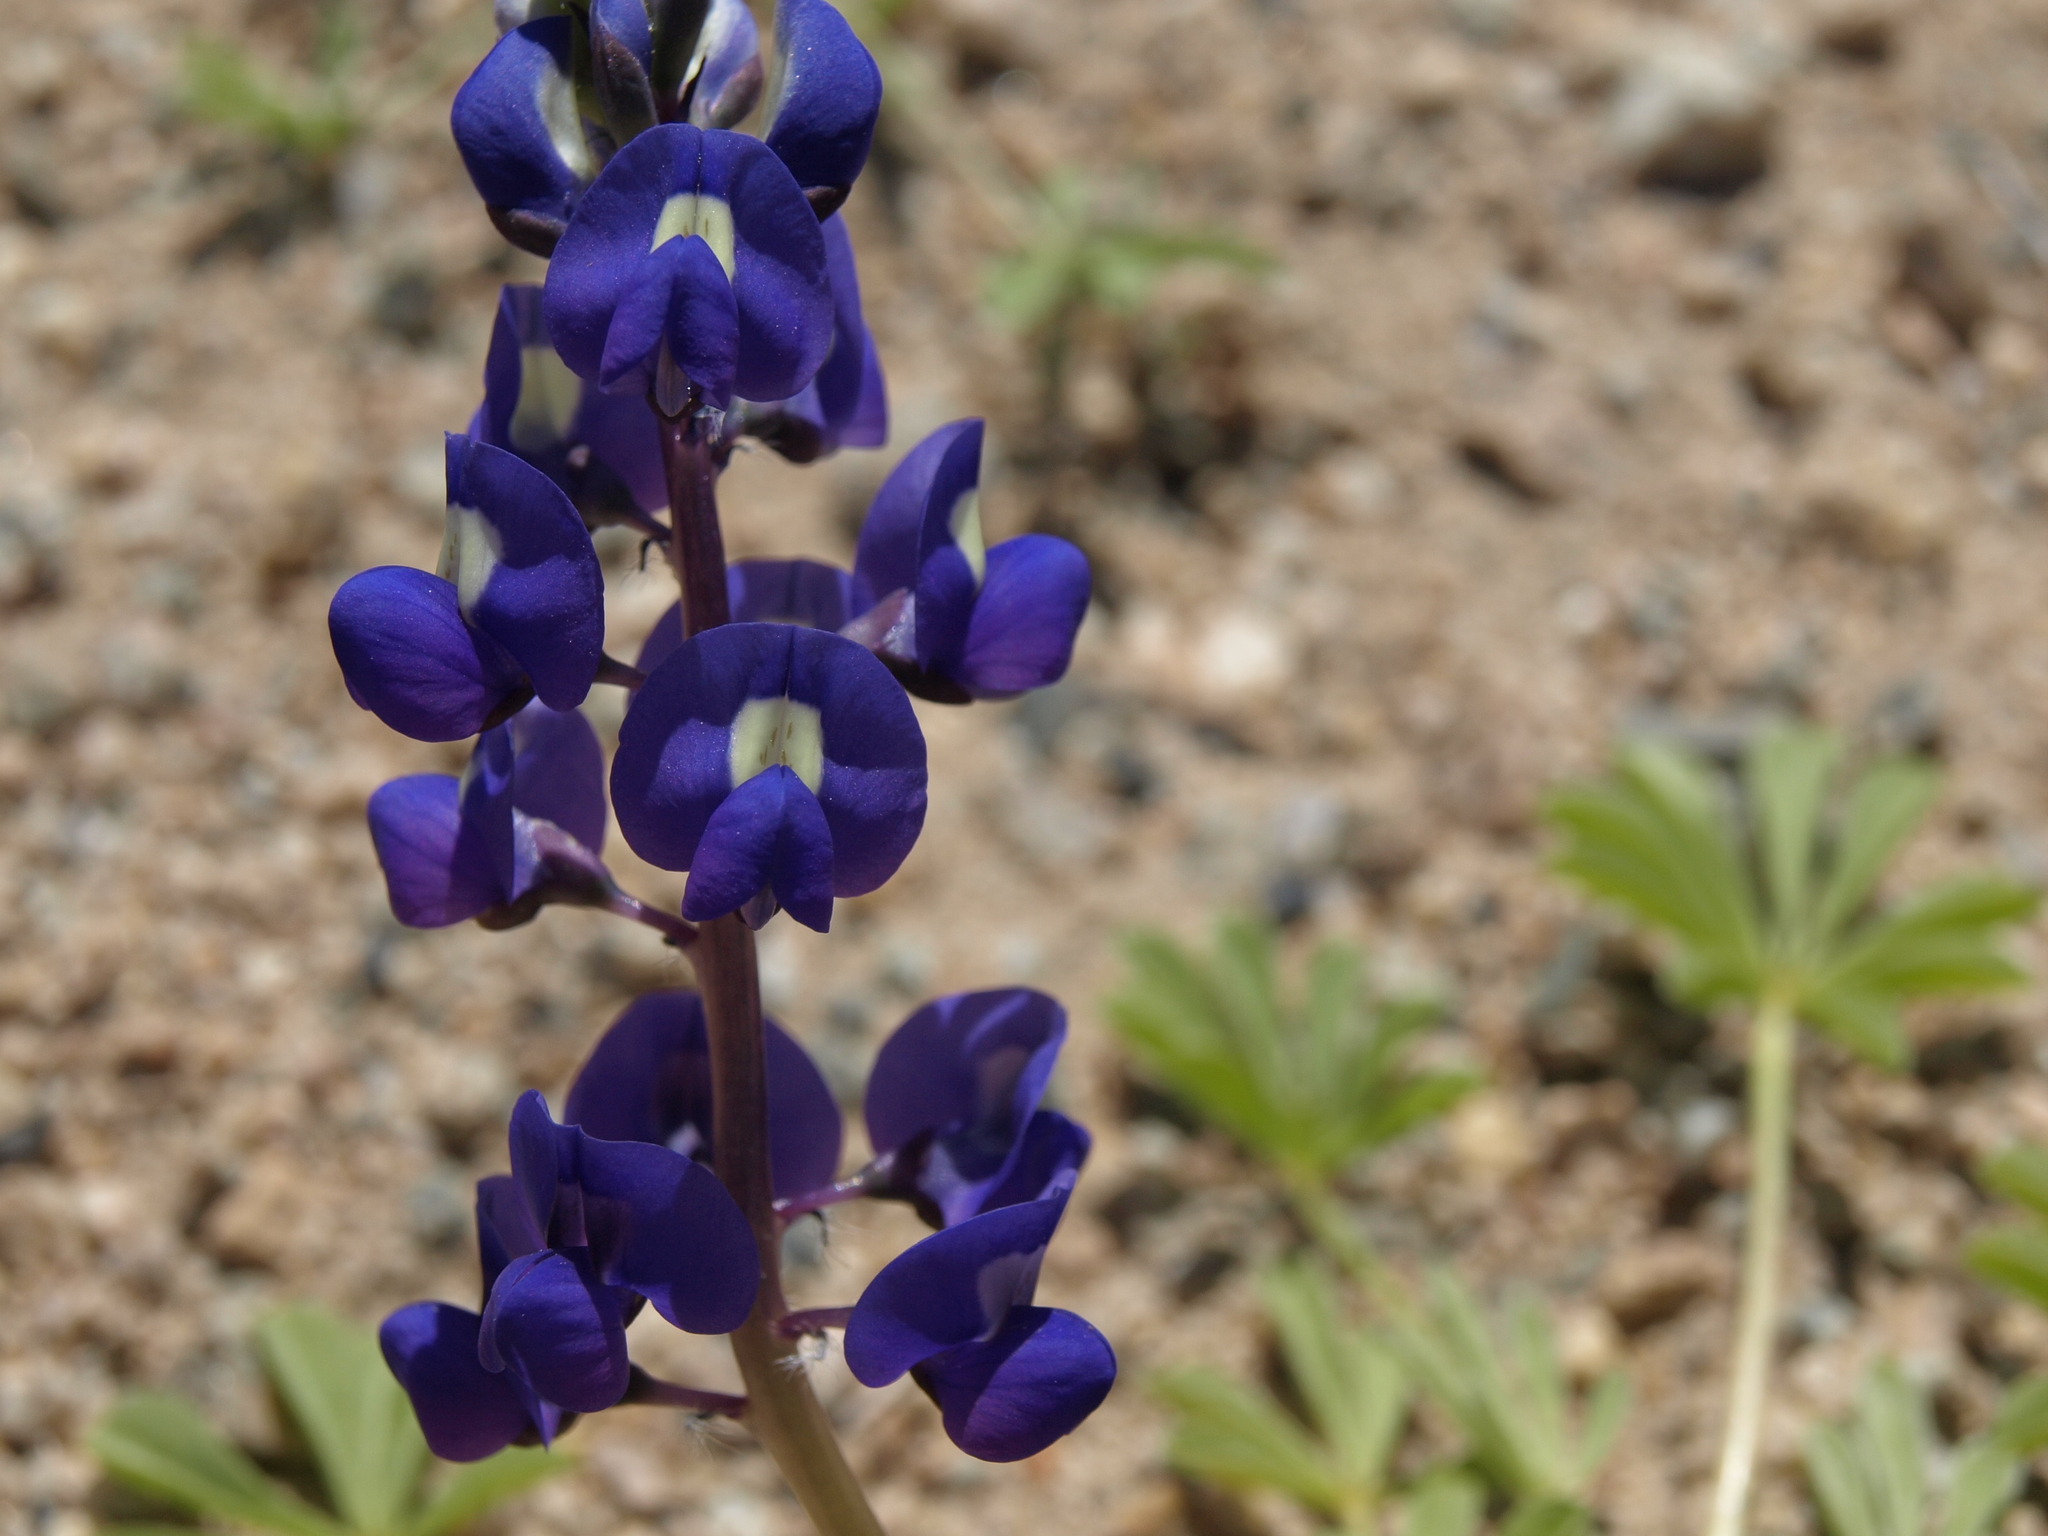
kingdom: Plantae
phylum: Tracheophyta
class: Magnoliopsida
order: Fabales
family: Fabaceae
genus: Lupinus
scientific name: Lupinus
